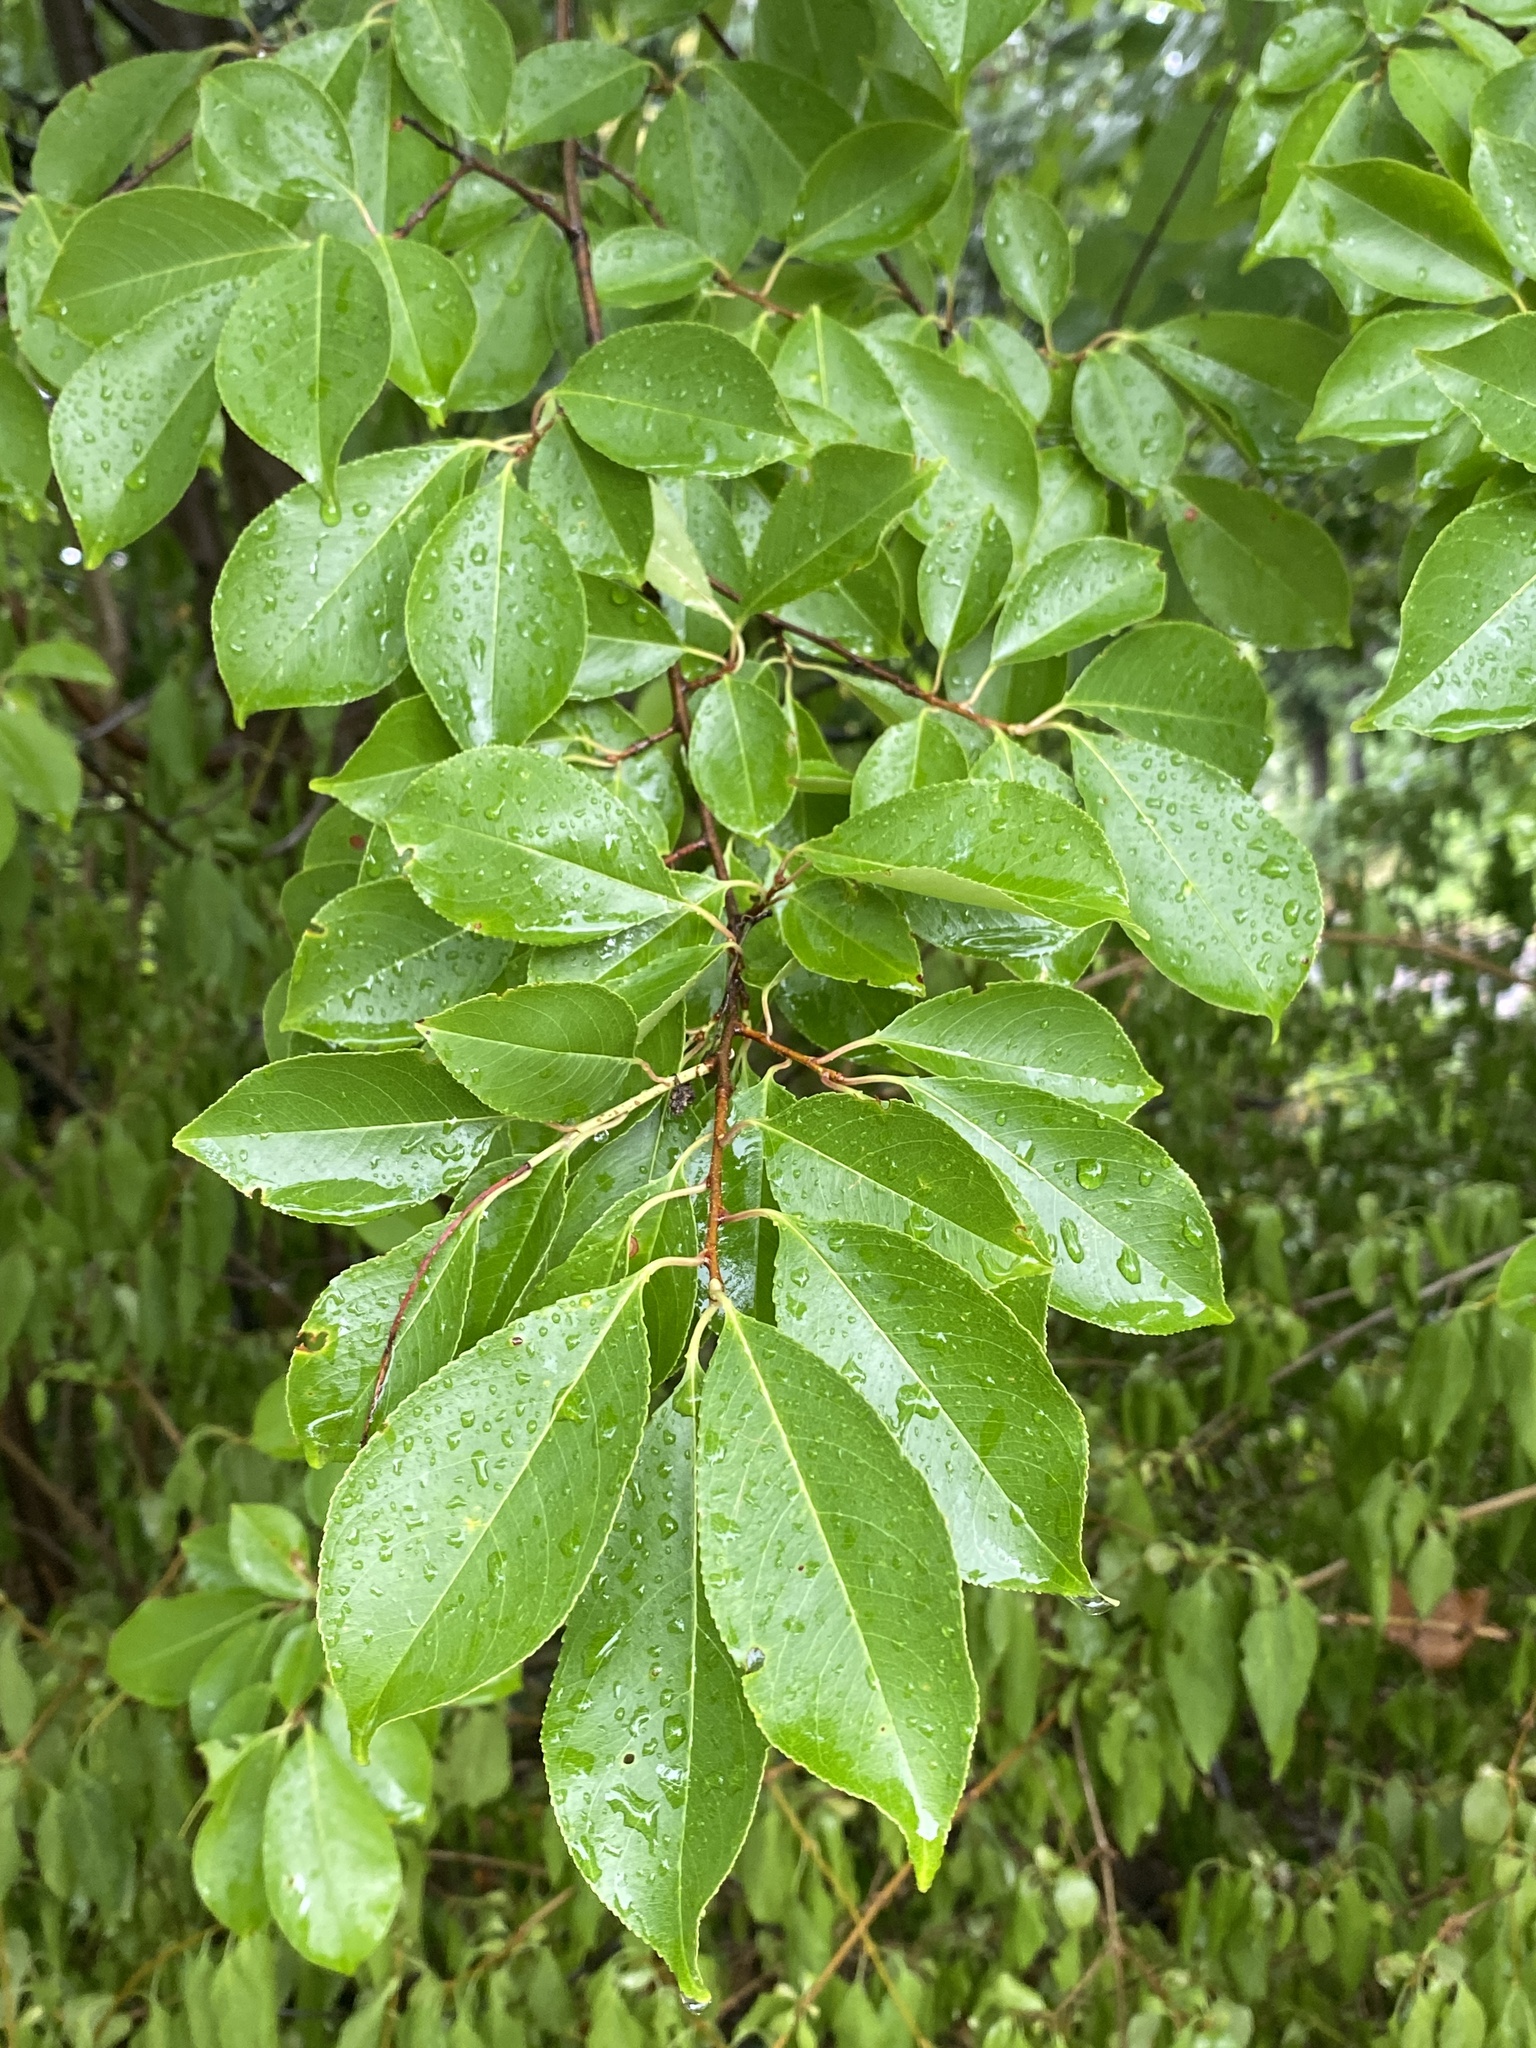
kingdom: Plantae
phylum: Tracheophyta
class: Magnoliopsida
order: Rosales
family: Rosaceae
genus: Prunus
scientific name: Prunus serotina
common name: Black cherry
